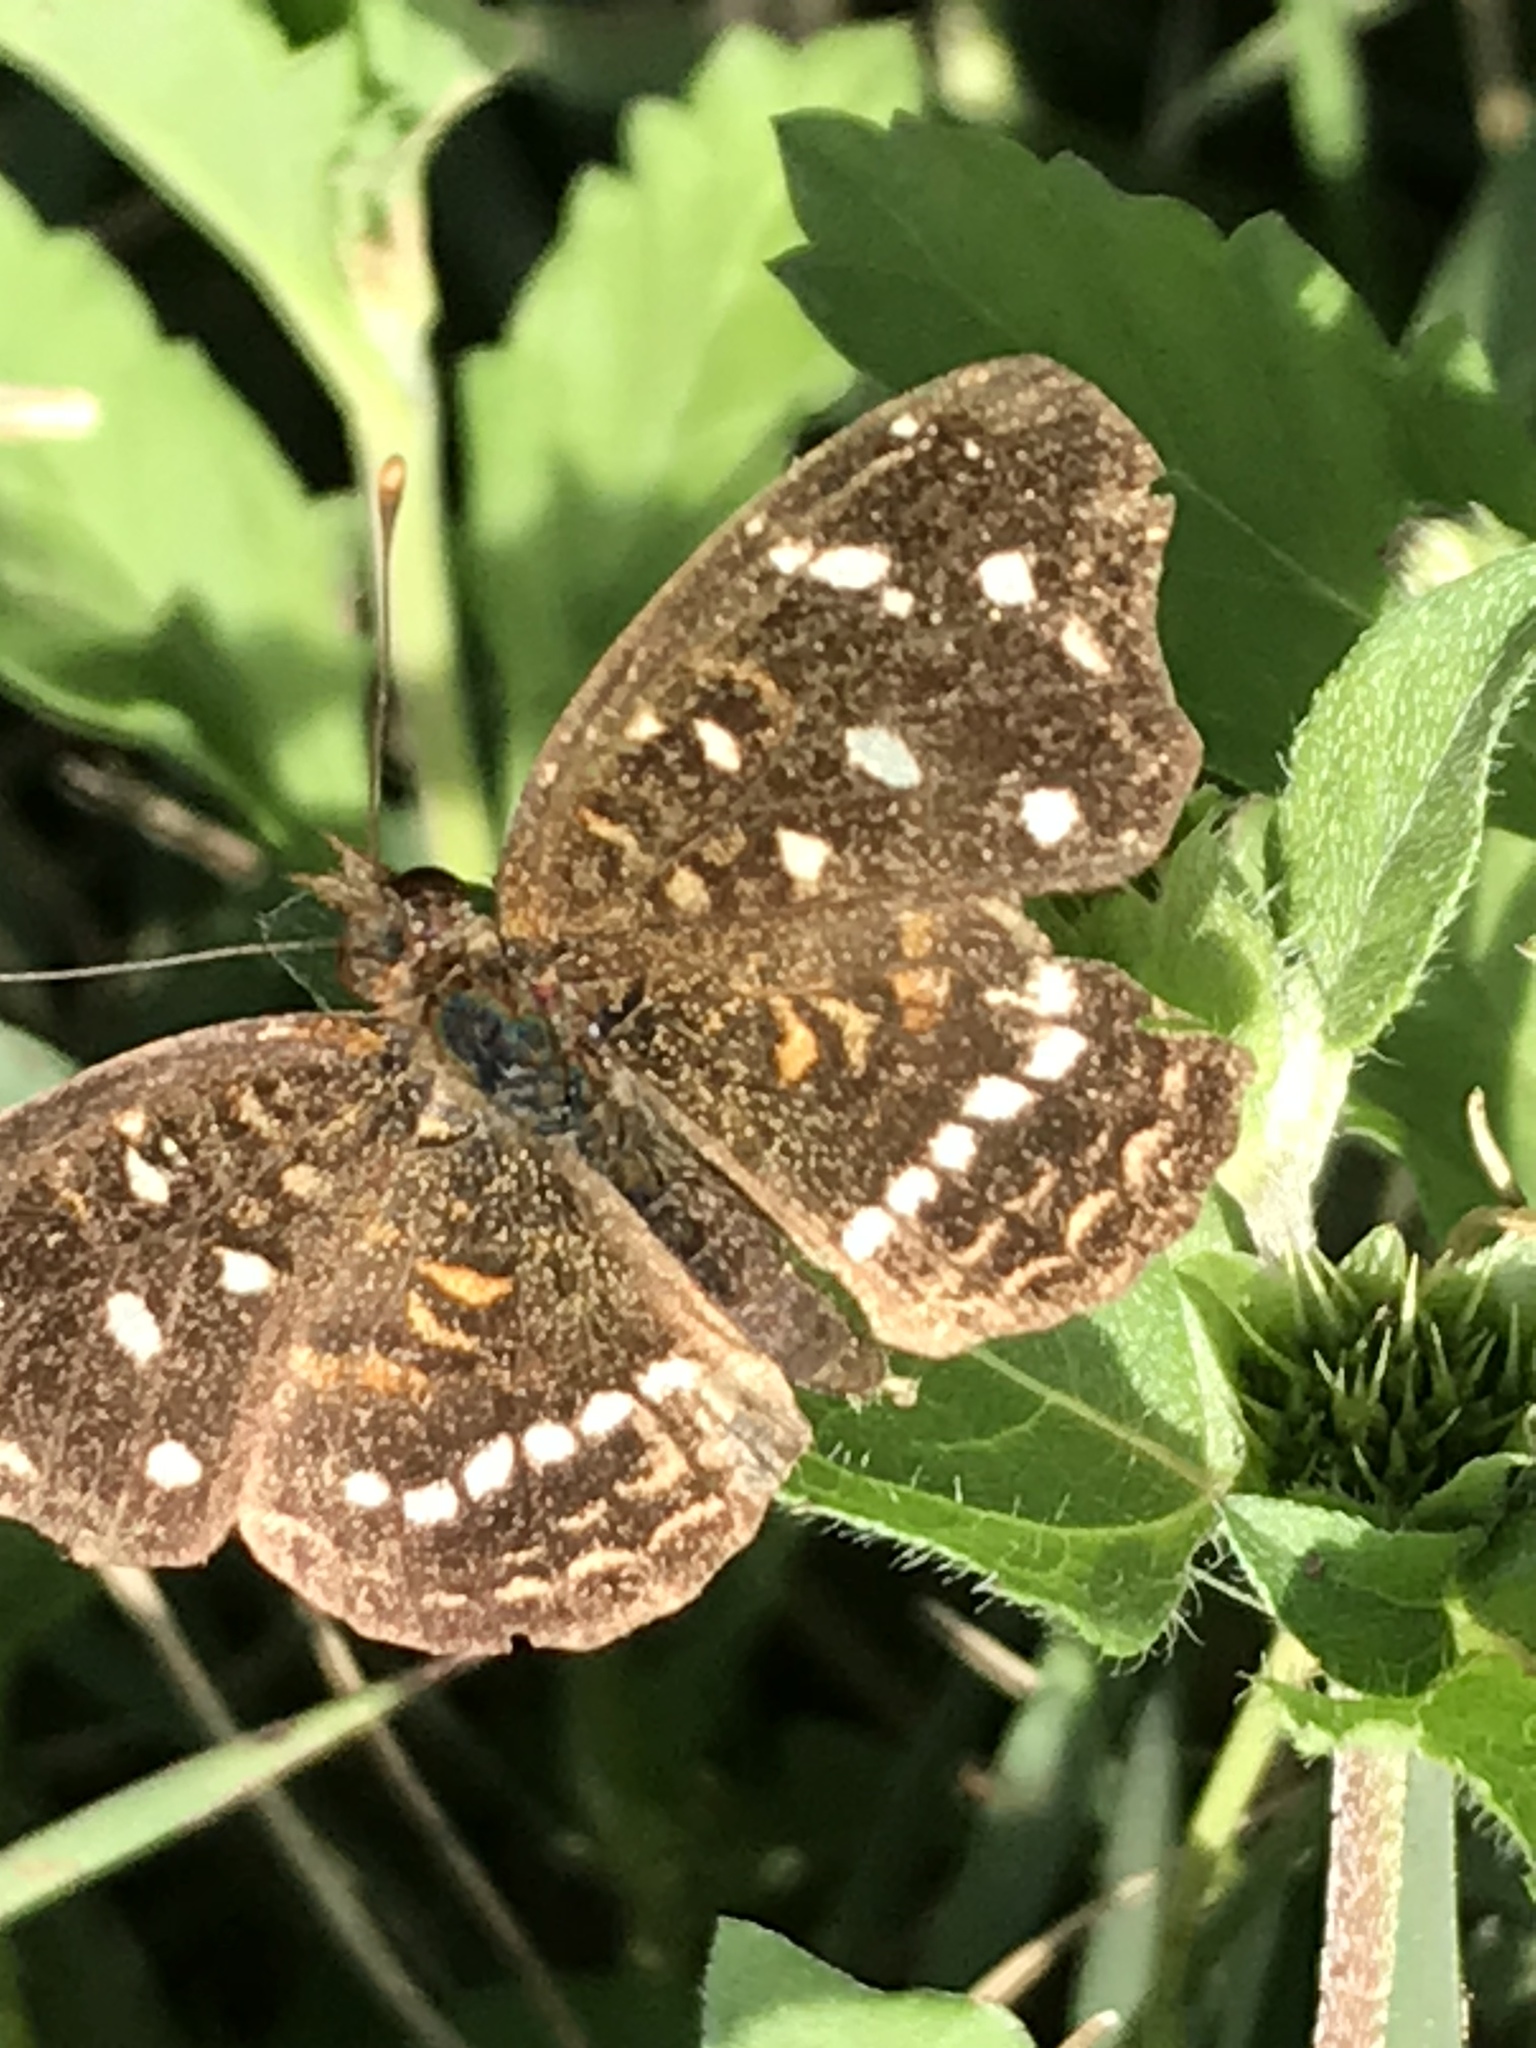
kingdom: Animalia
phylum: Arthropoda
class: Insecta
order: Lepidoptera
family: Nymphalidae
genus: Anthanassa
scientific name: Anthanassa texana
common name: Texan crescent
